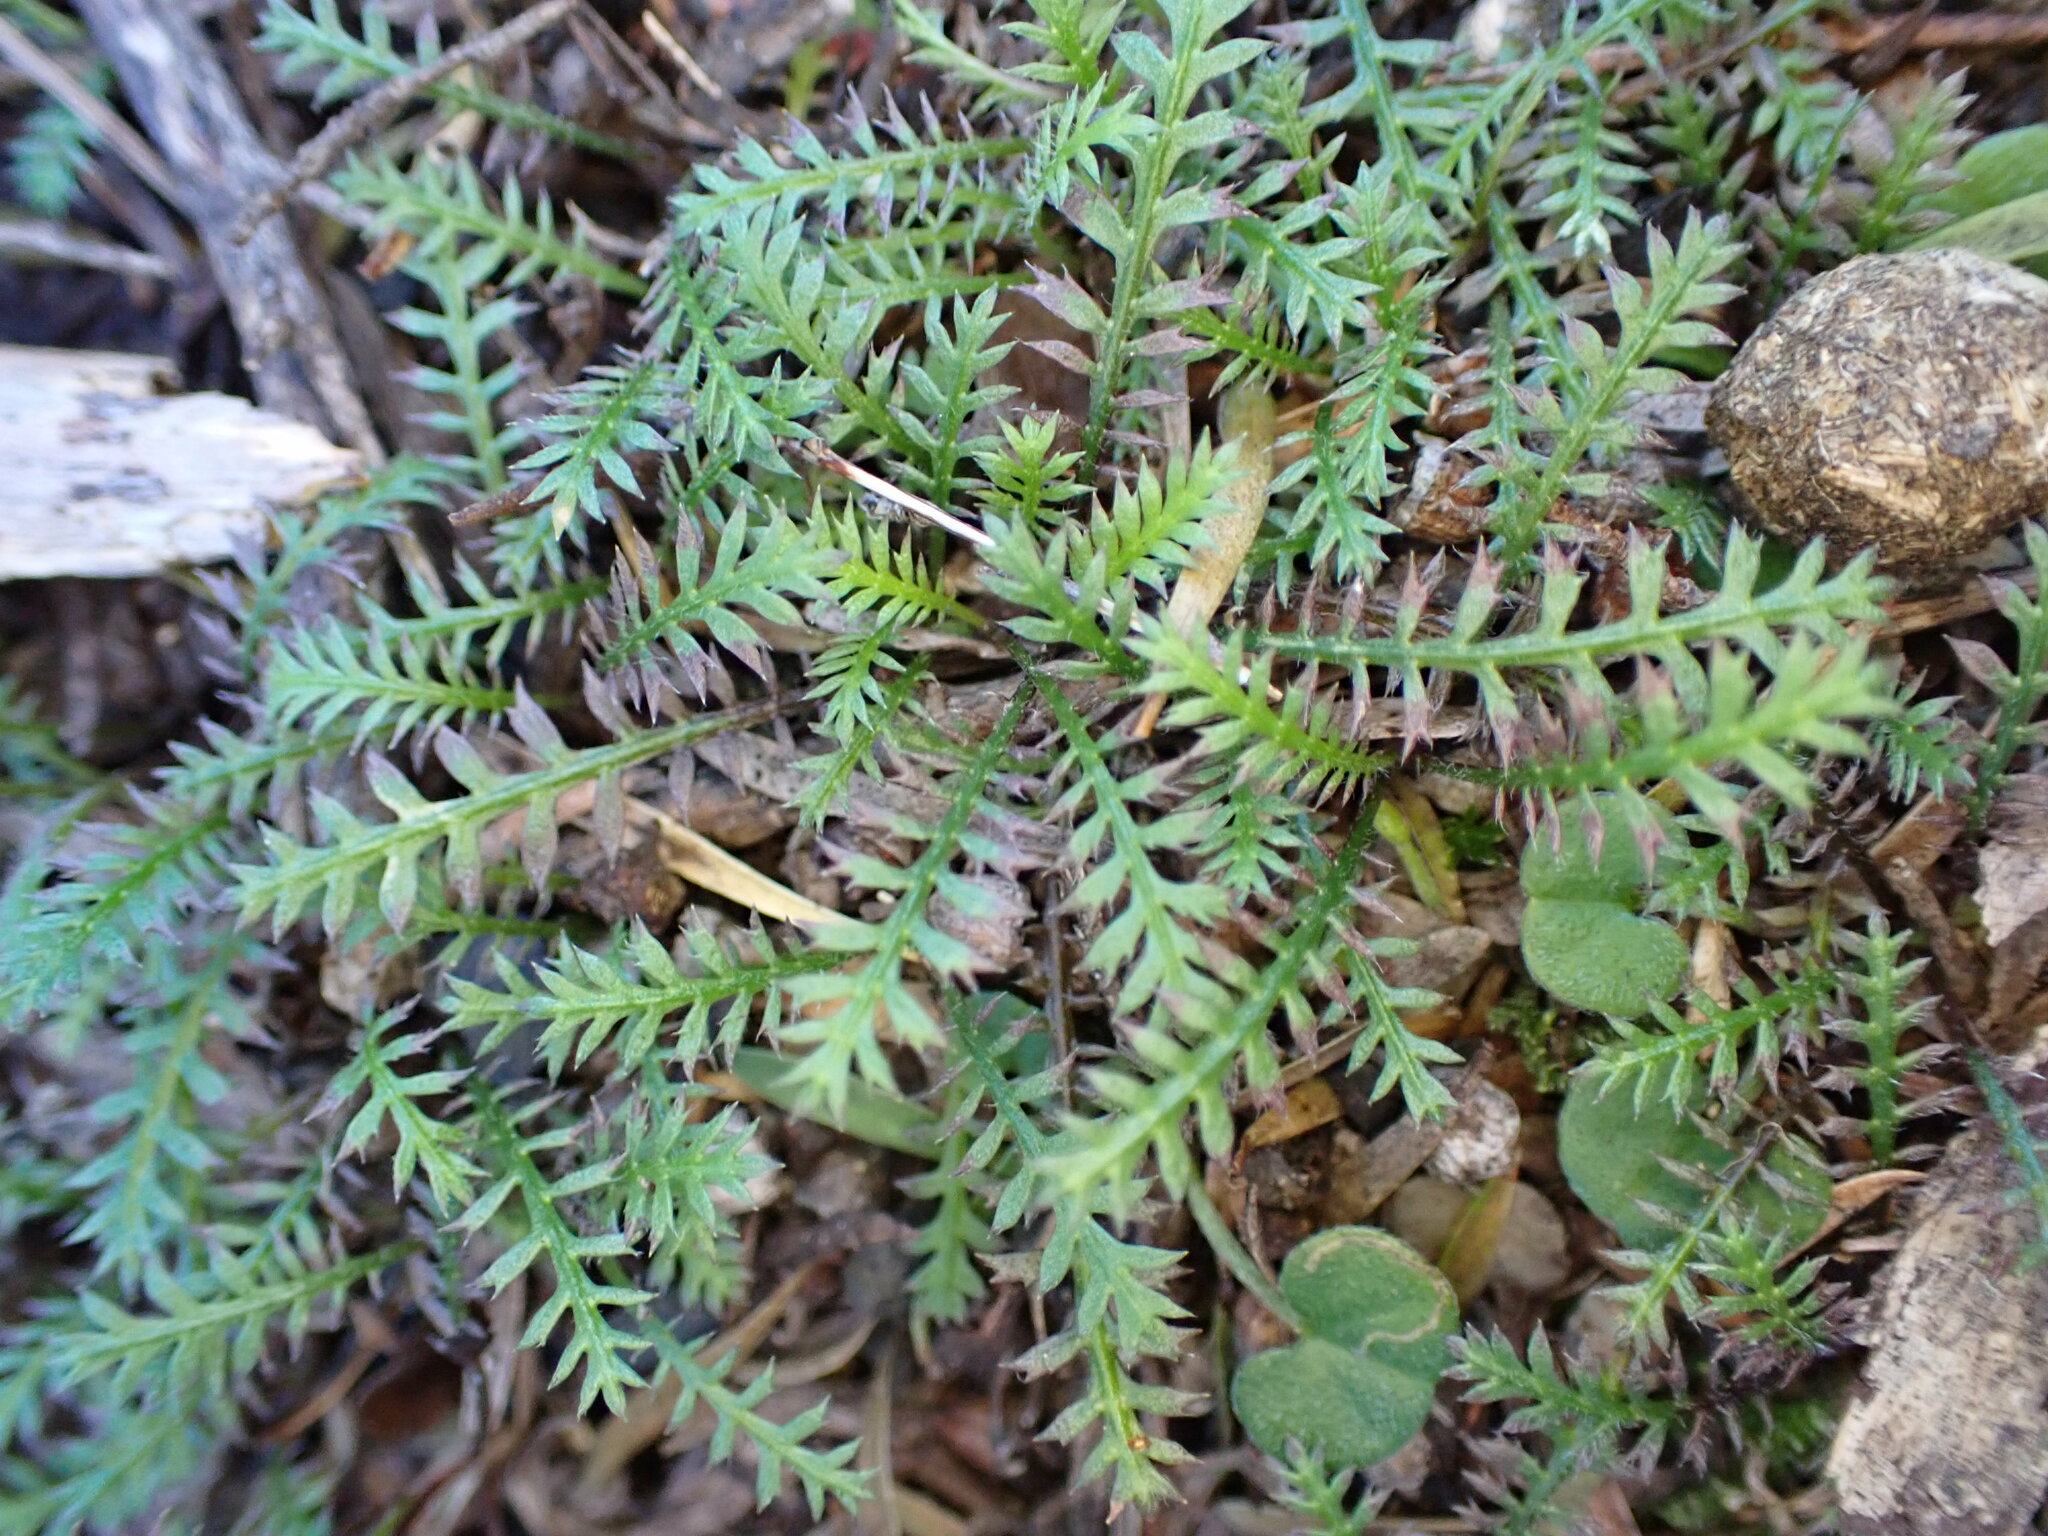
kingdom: Plantae
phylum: Tracheophyta
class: Magnoliopsida
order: Asterales
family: Asteraceae
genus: Leptinella
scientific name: Leptinella pusilla
